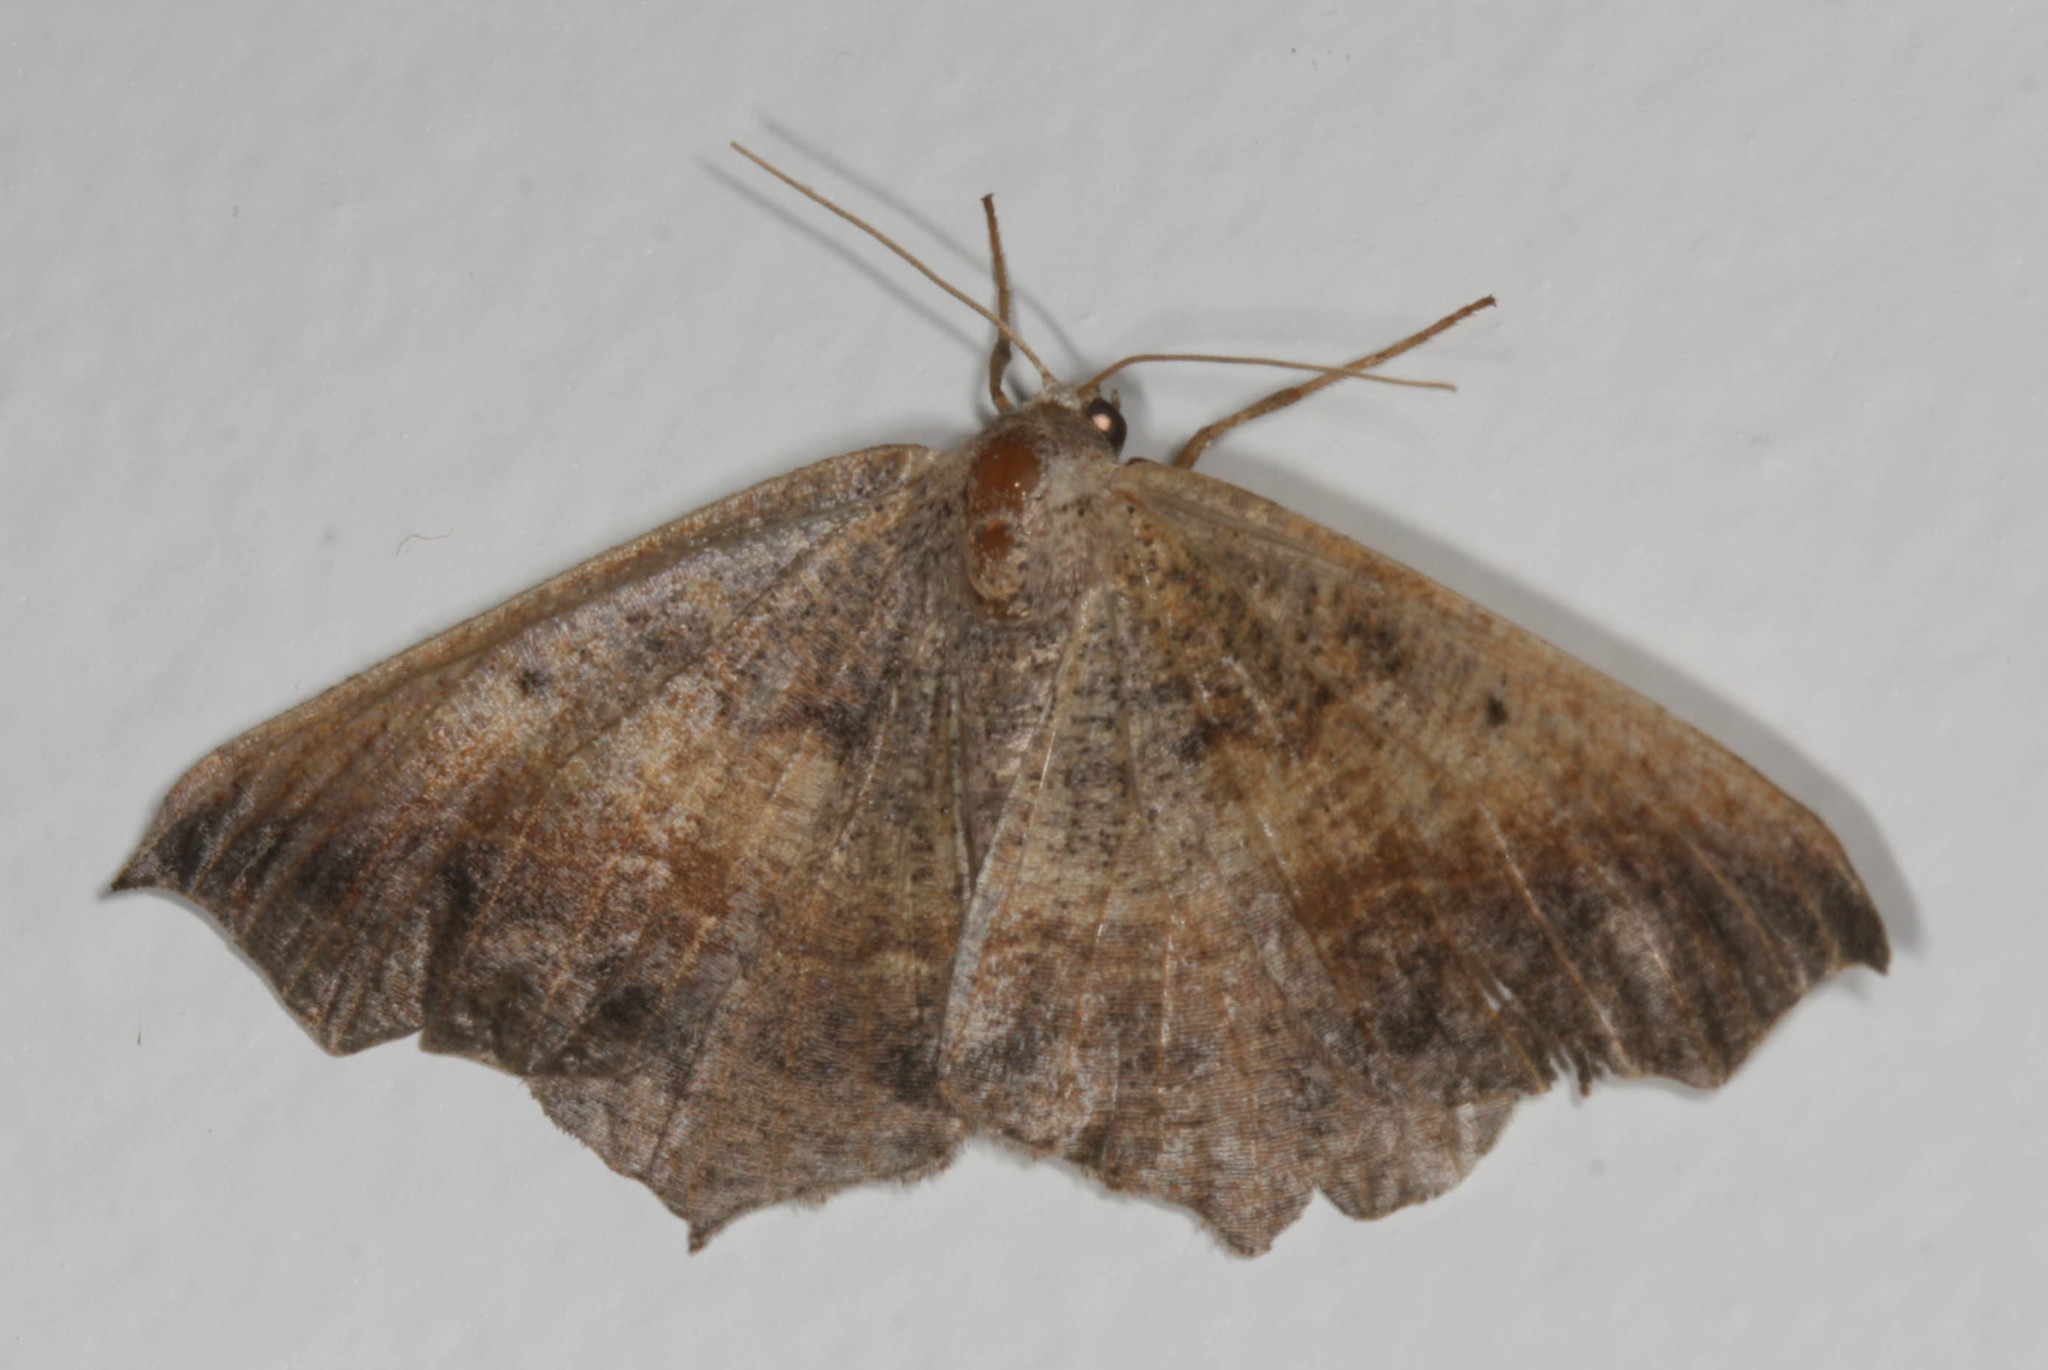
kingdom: Animalia
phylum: Arthropoda
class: Insecta
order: Lepidoptera
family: Geometridae
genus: Prochoerodes
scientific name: Prochoerodes forficaria
